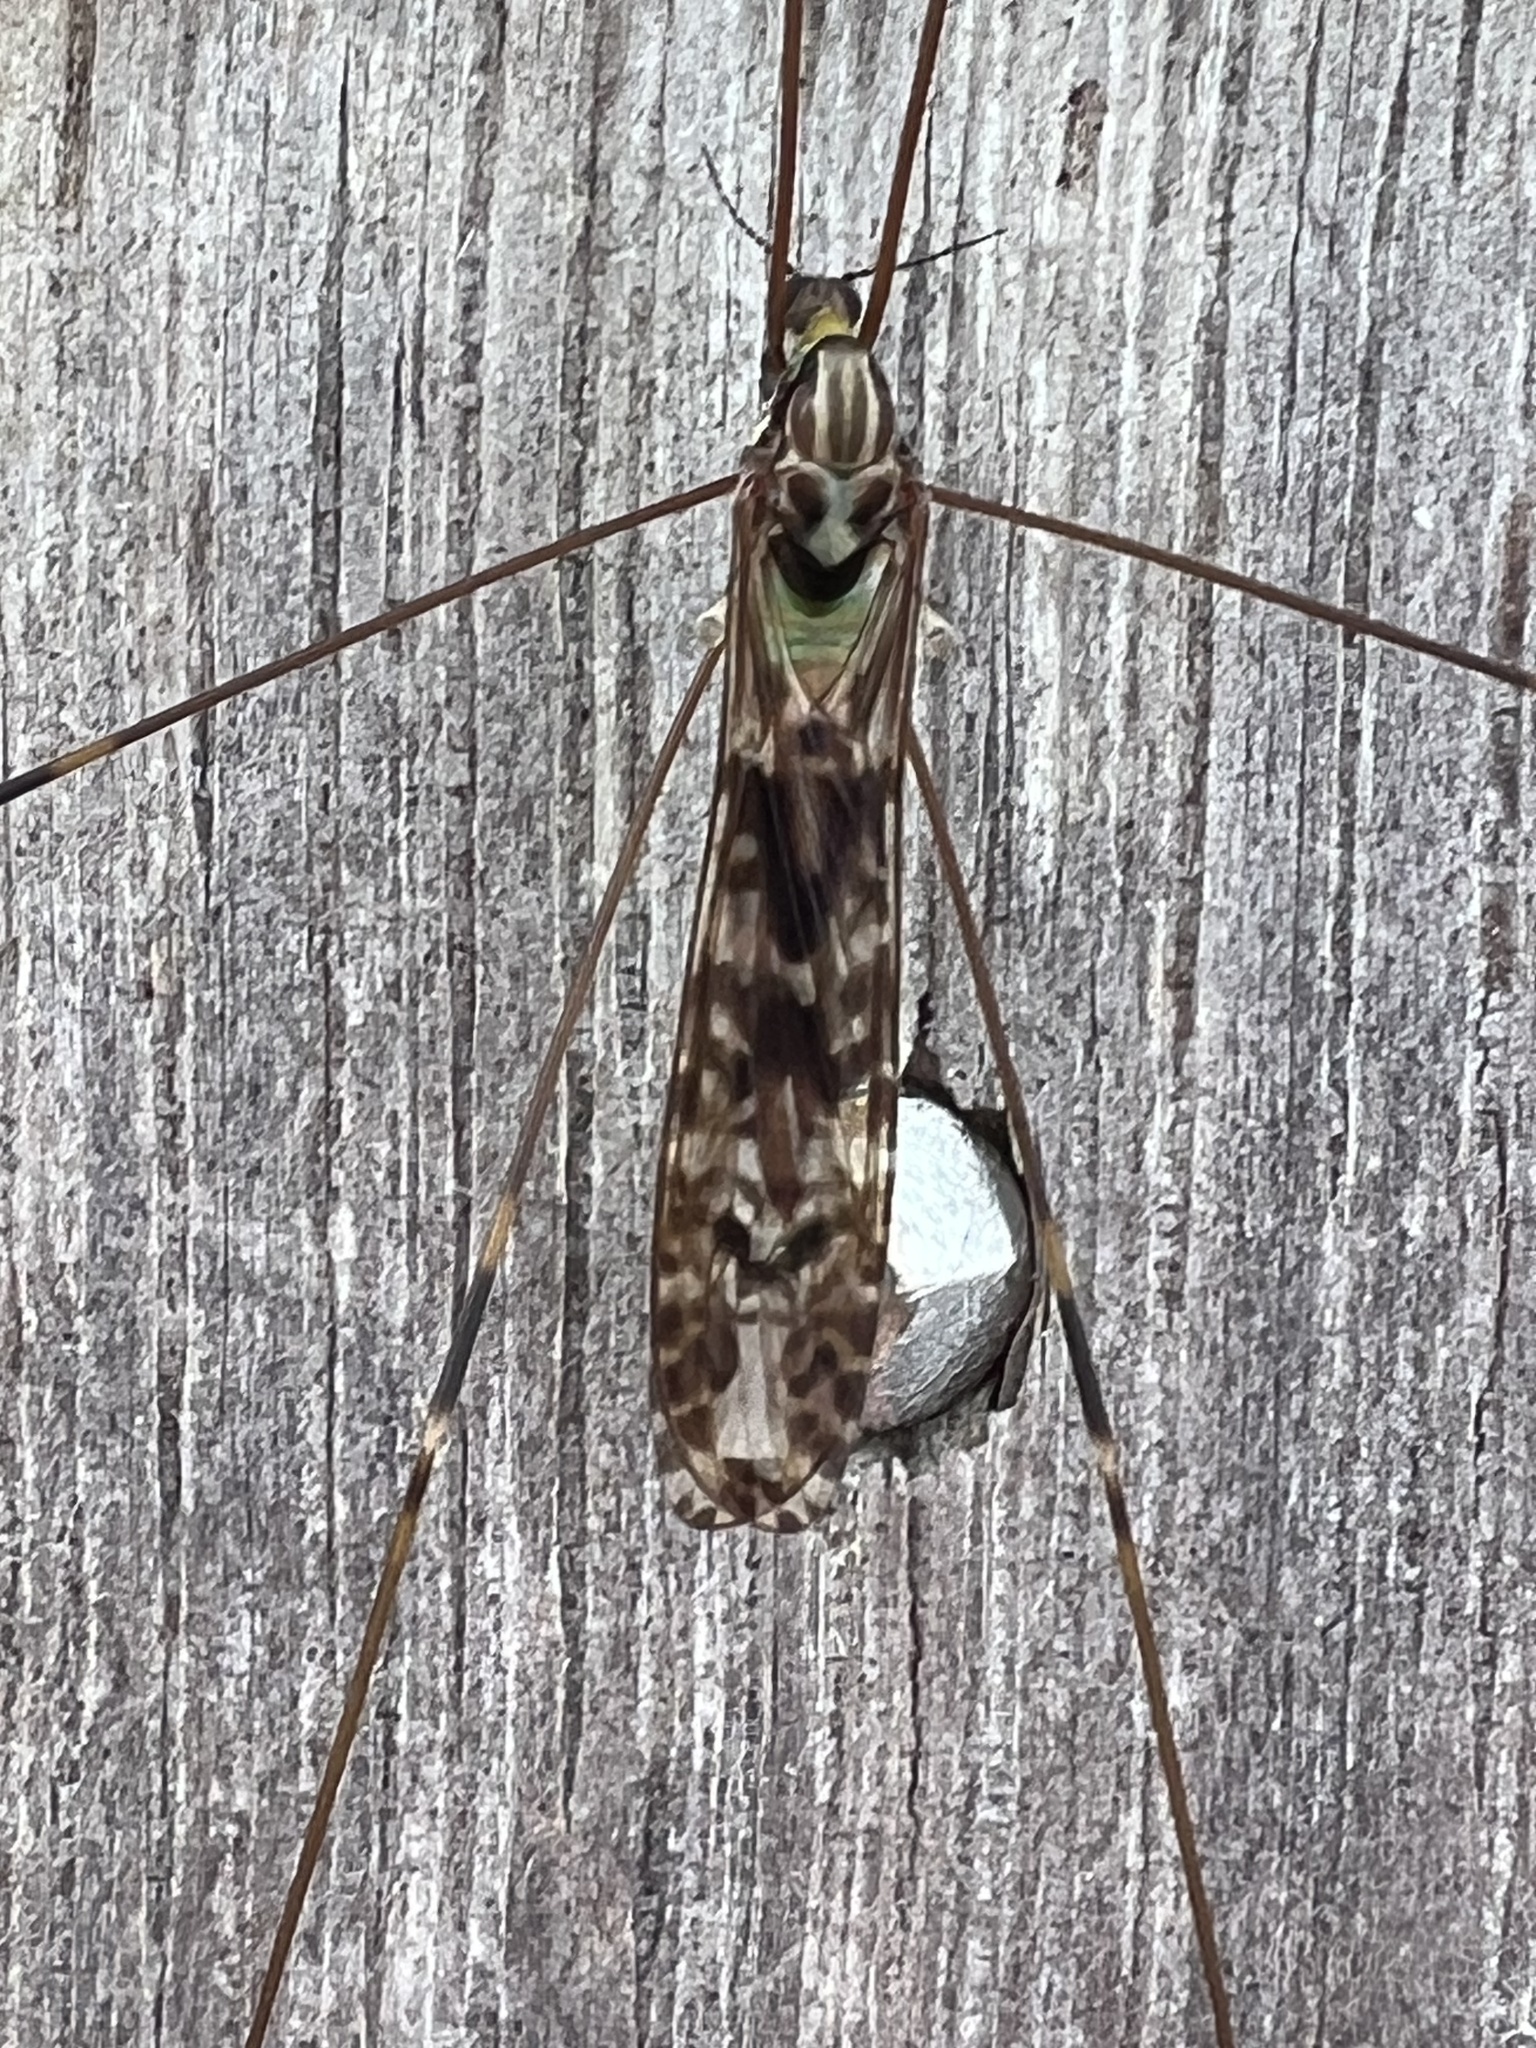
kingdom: Animalia
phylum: Arthropoda
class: Insecta
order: Diptera
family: Limoniidae
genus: Discobola
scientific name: Discobola dohrni
